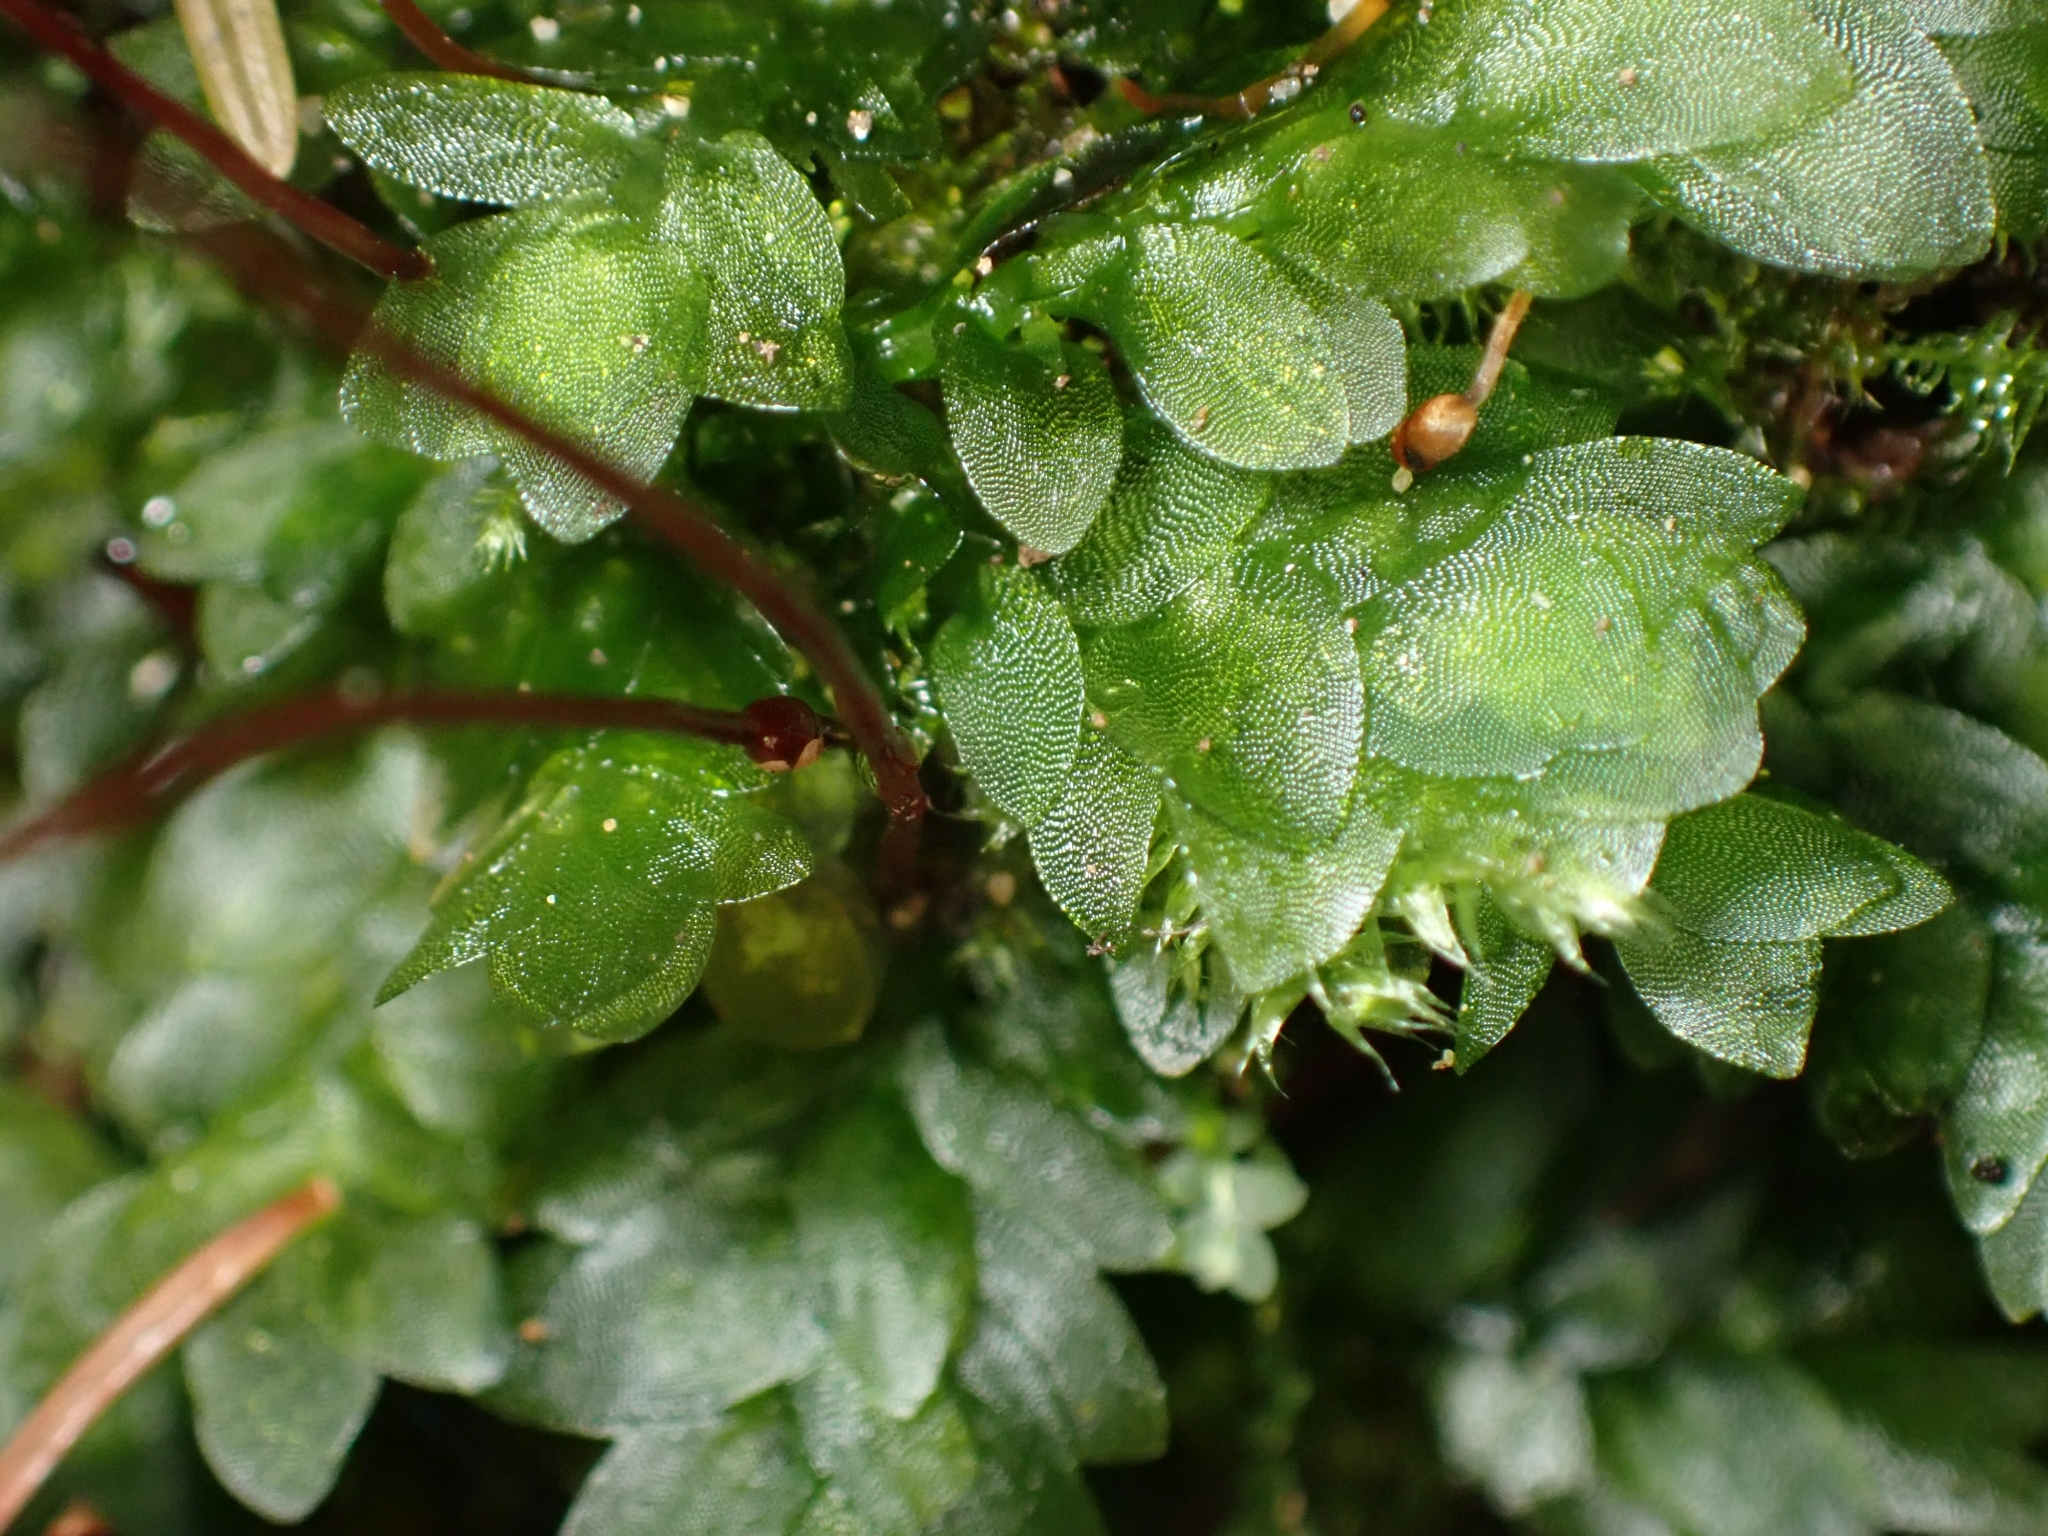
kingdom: Plantae
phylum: Bryophyta
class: Bryopsida
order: Hookeriales
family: Hookeriaceae
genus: Hookeria
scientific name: Hookeria lucens
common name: Shining hookeria
